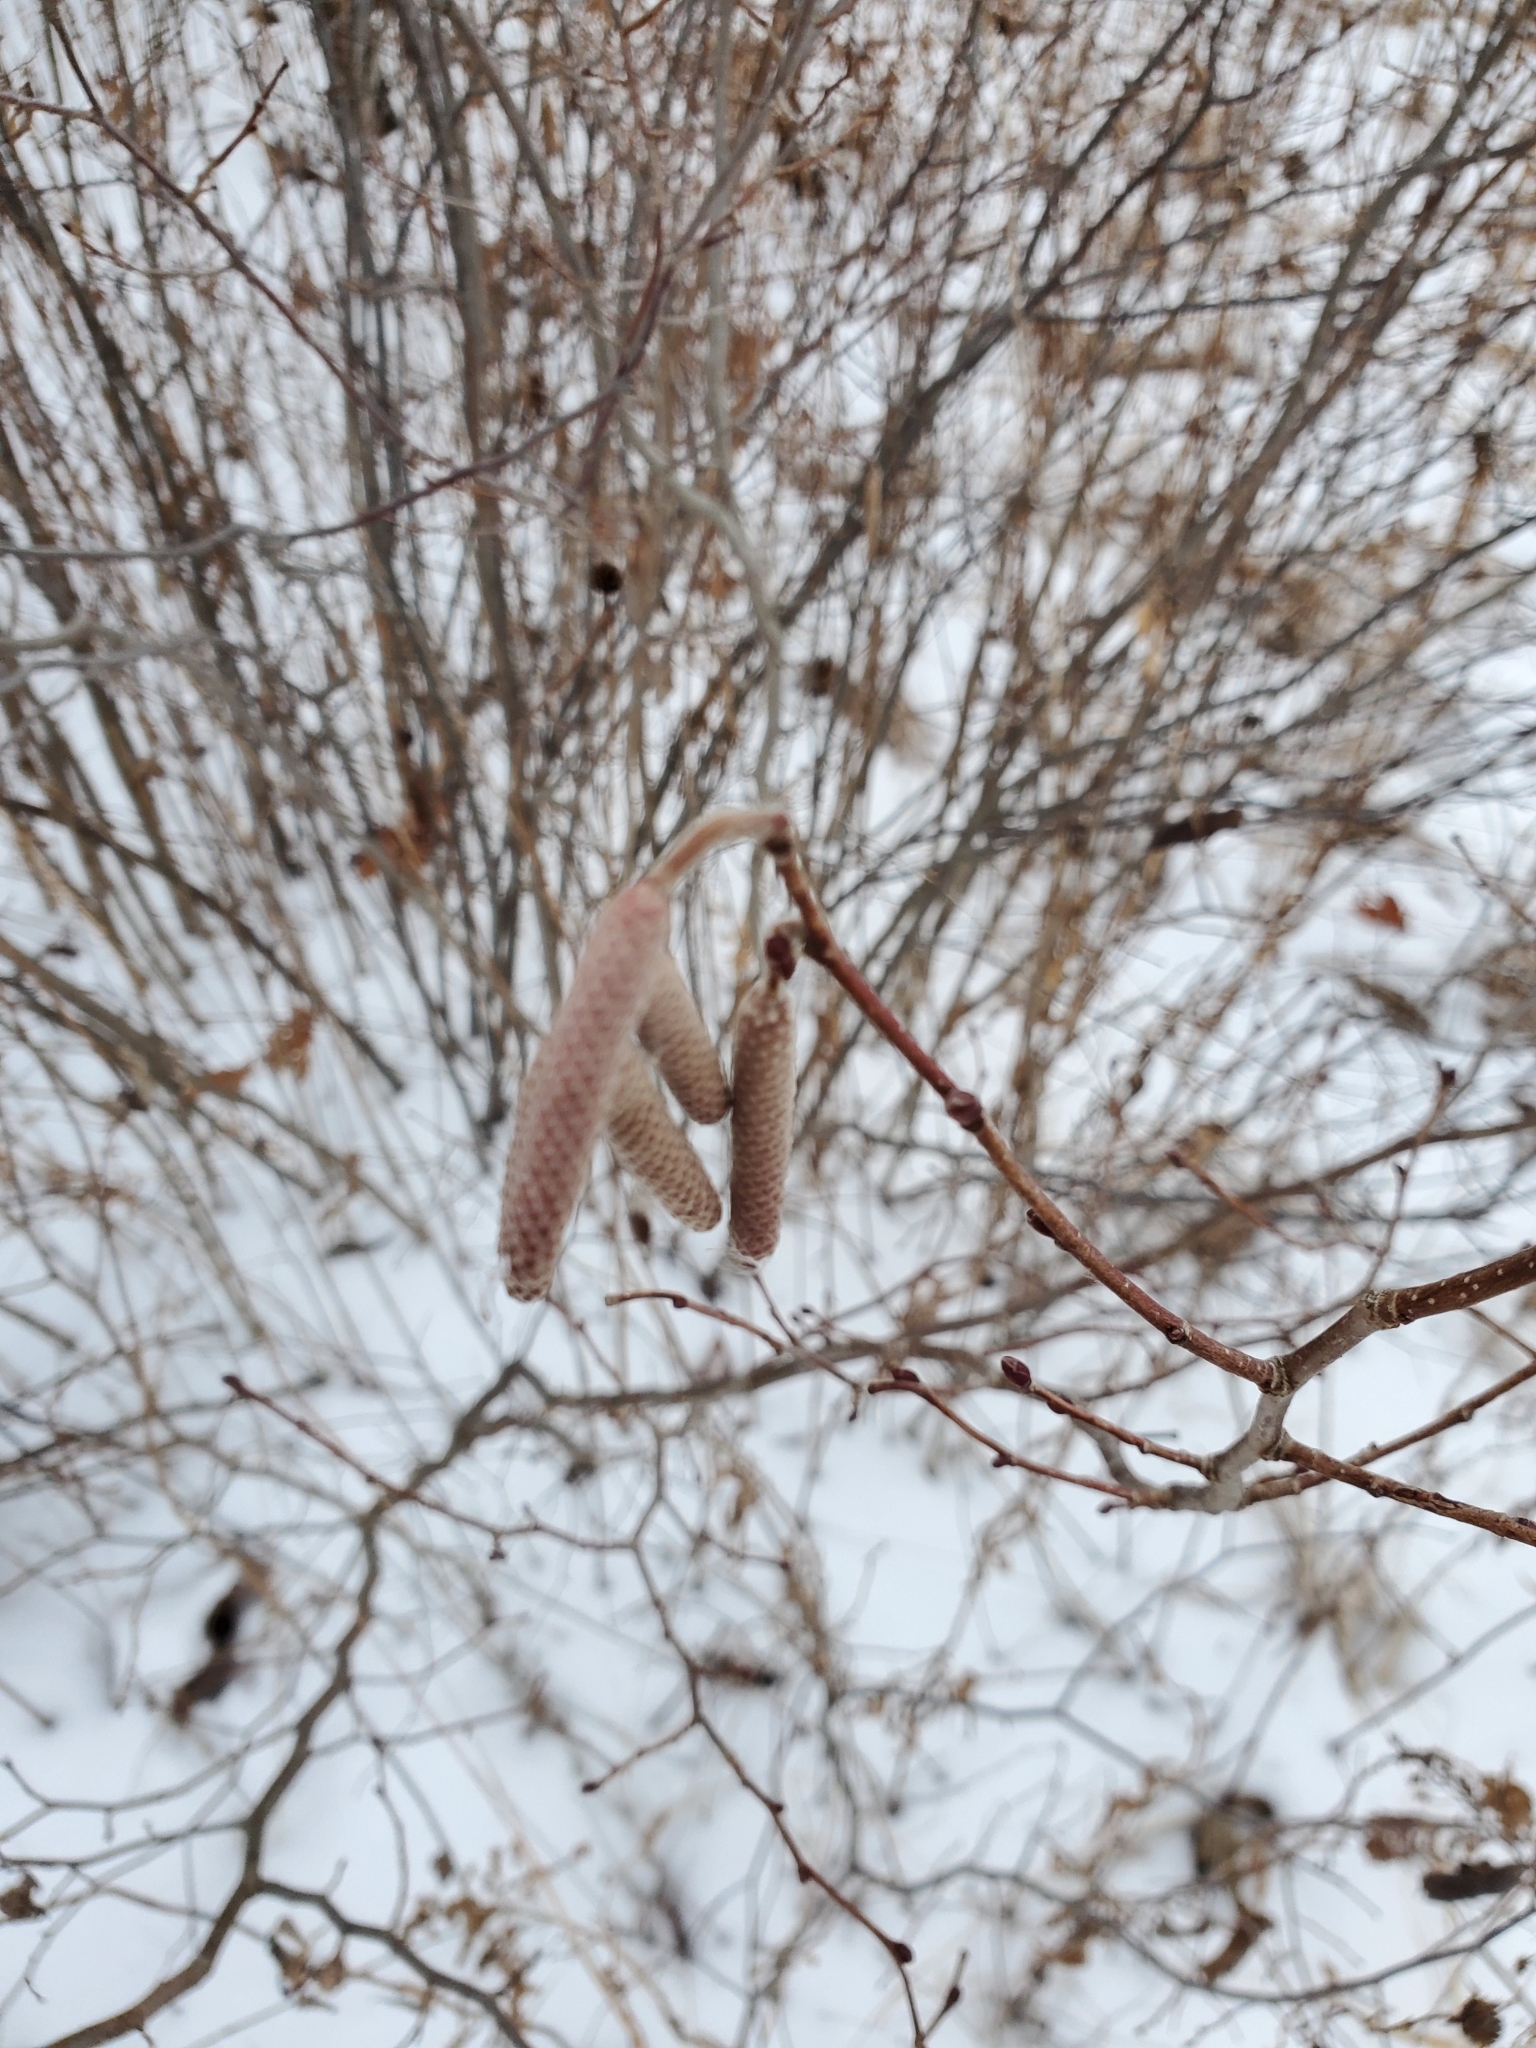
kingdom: Plantae
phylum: Tracheophyta
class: Magnoliopsida
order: Fagales
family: Betulaceae
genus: Corylus
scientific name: Corylus americana
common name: American hazel
